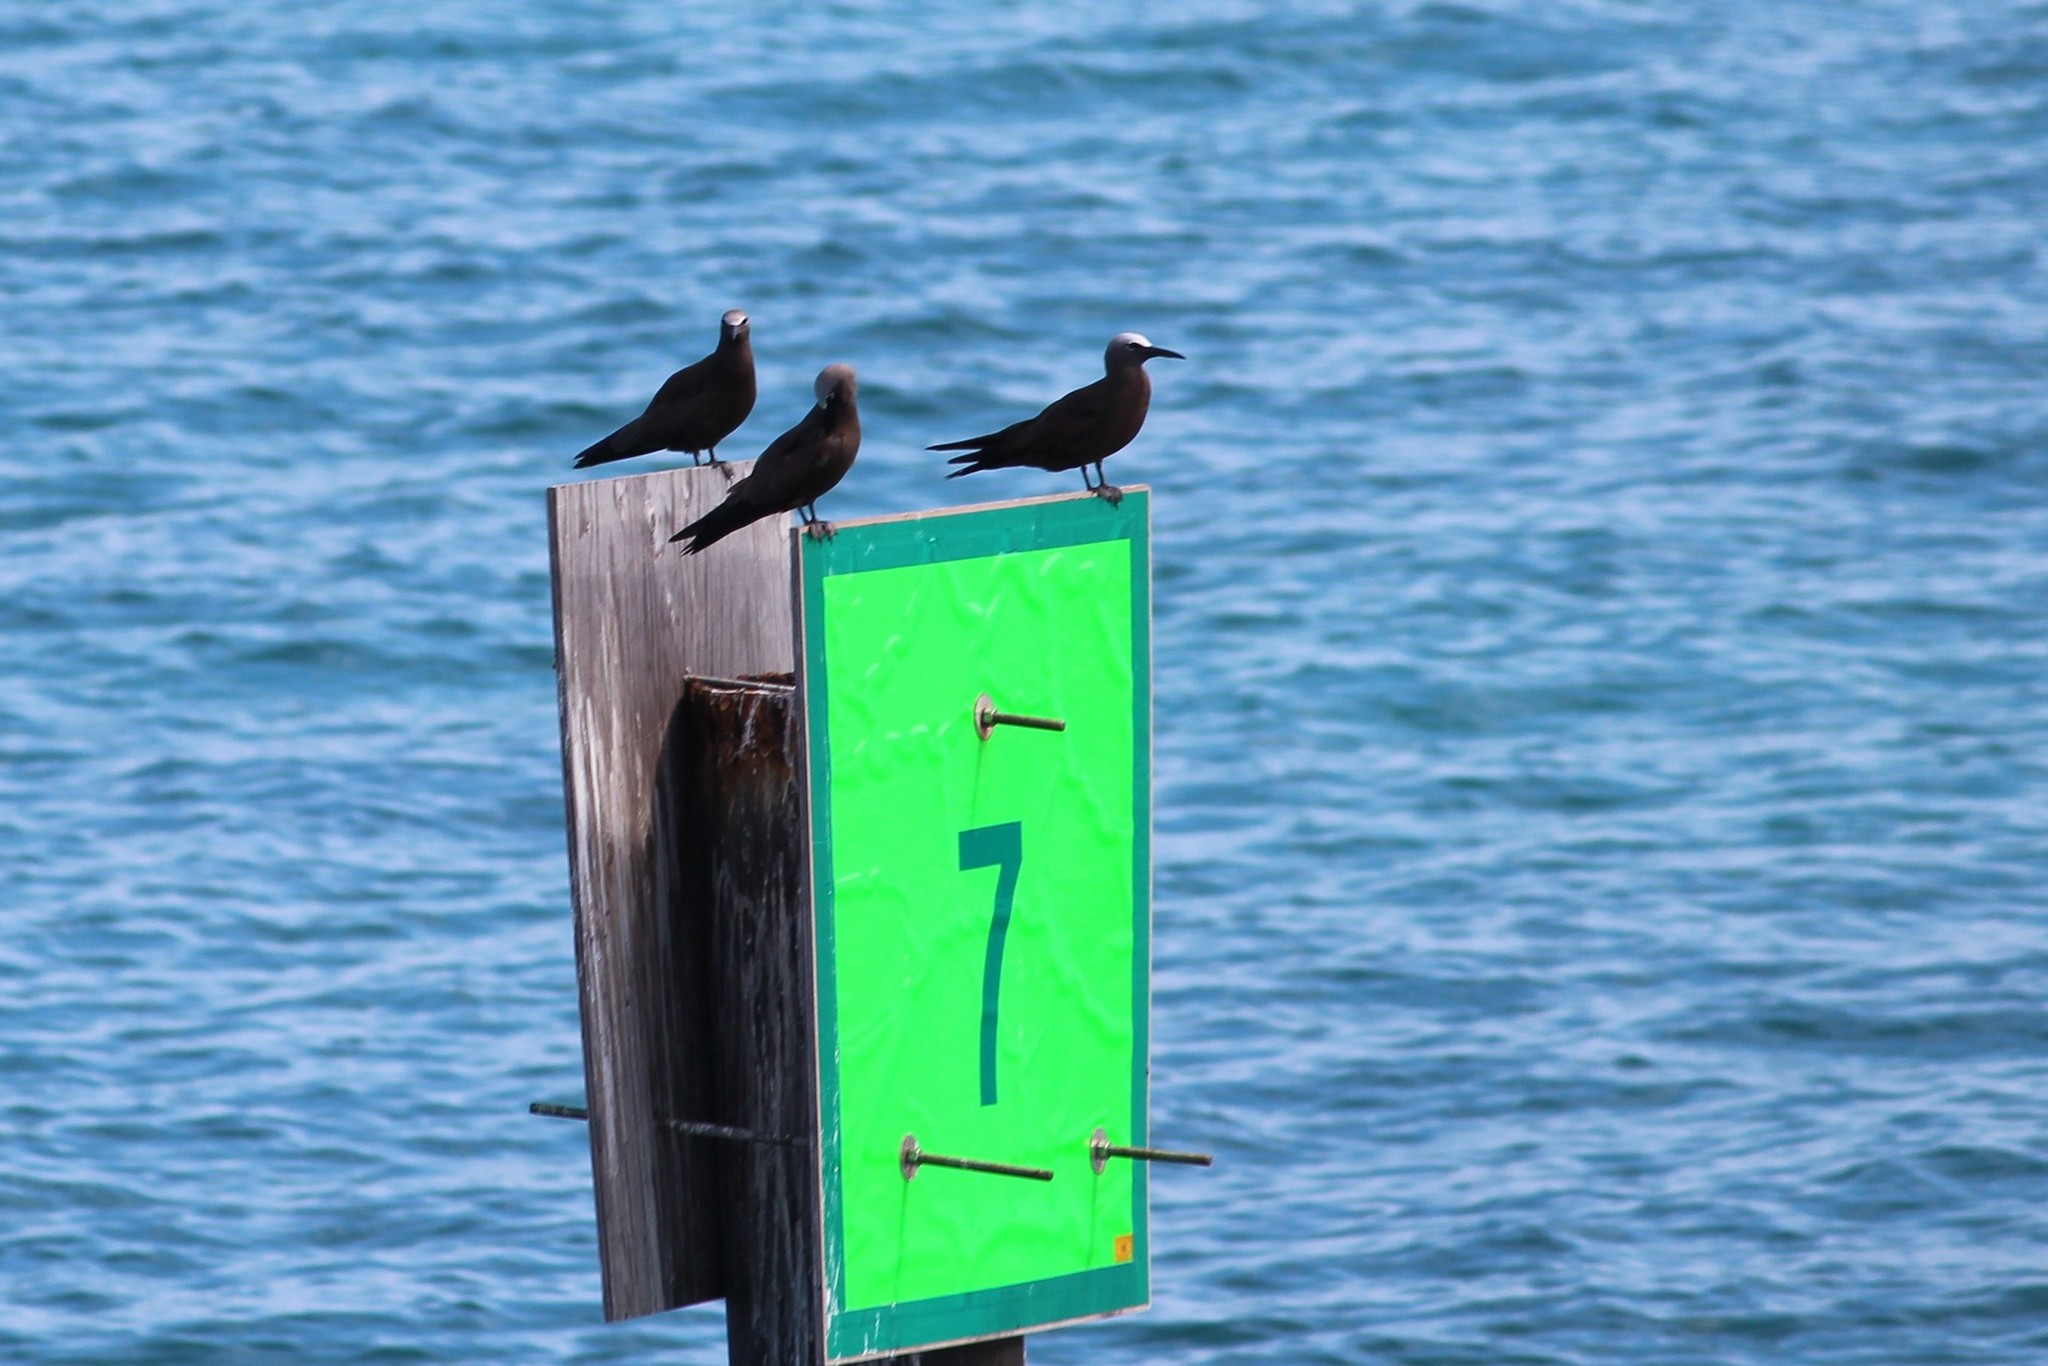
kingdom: Animalia
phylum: Chordata
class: Aves
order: Charadriiformes
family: Laridae
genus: Anous
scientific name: Anous stolidus
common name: Brown noddy
